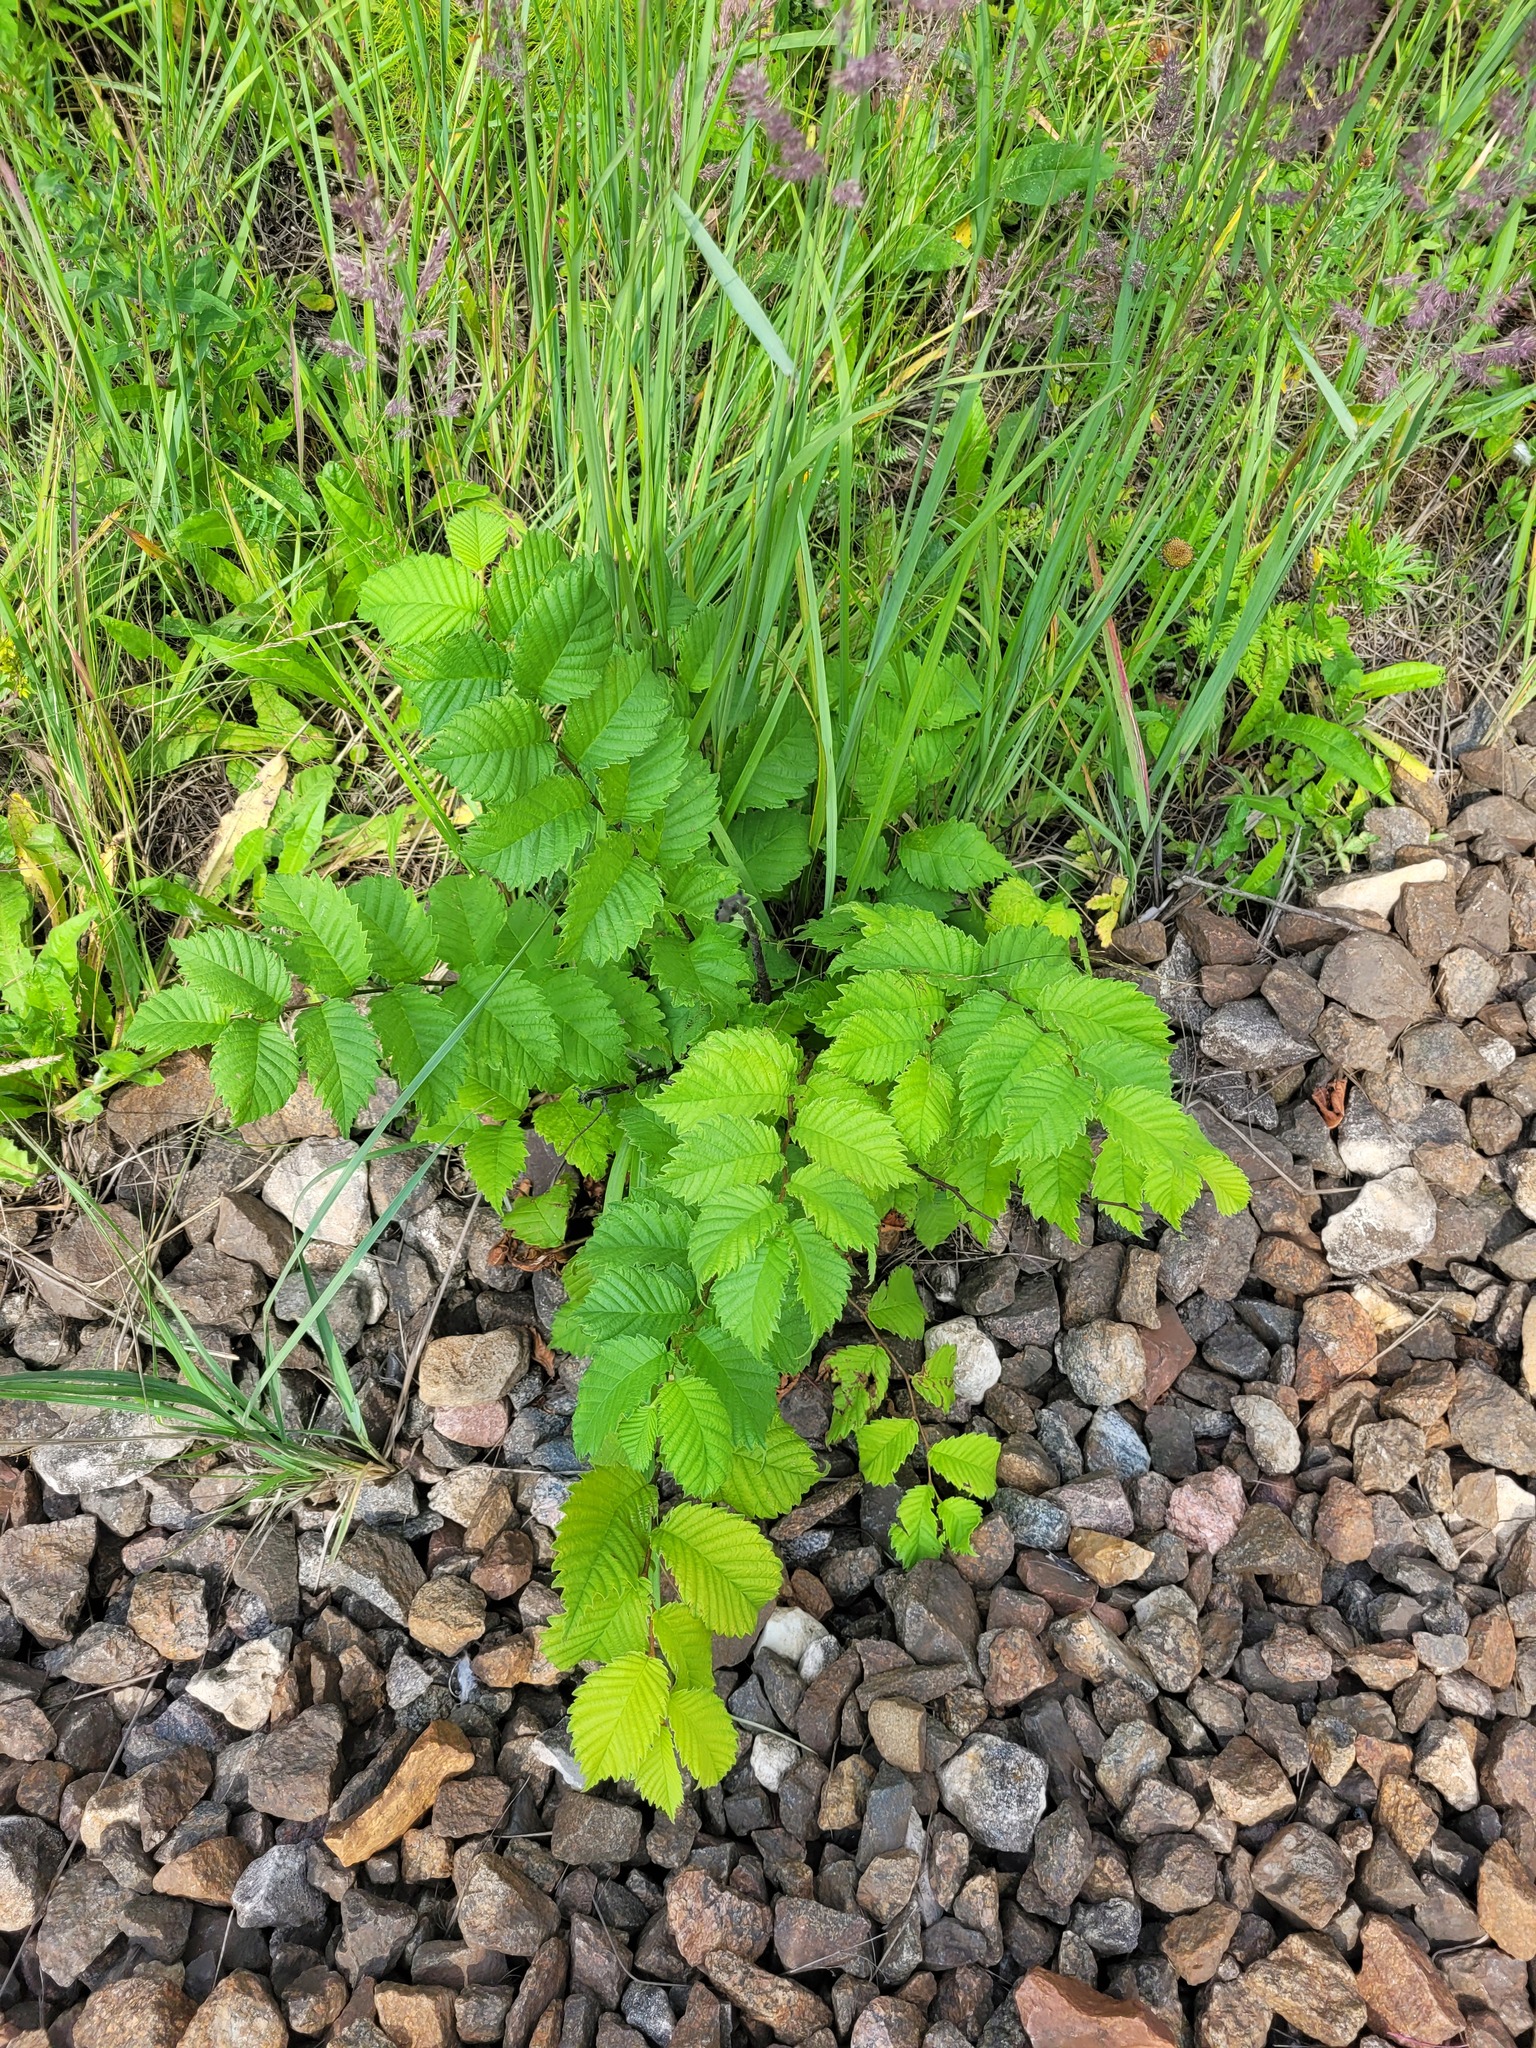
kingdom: Plantae
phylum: Tracheophyta
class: Magnoliopsida
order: Rosales
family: Ulmaceae
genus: Ulmus
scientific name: Ulmus laevis
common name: European white-elm
